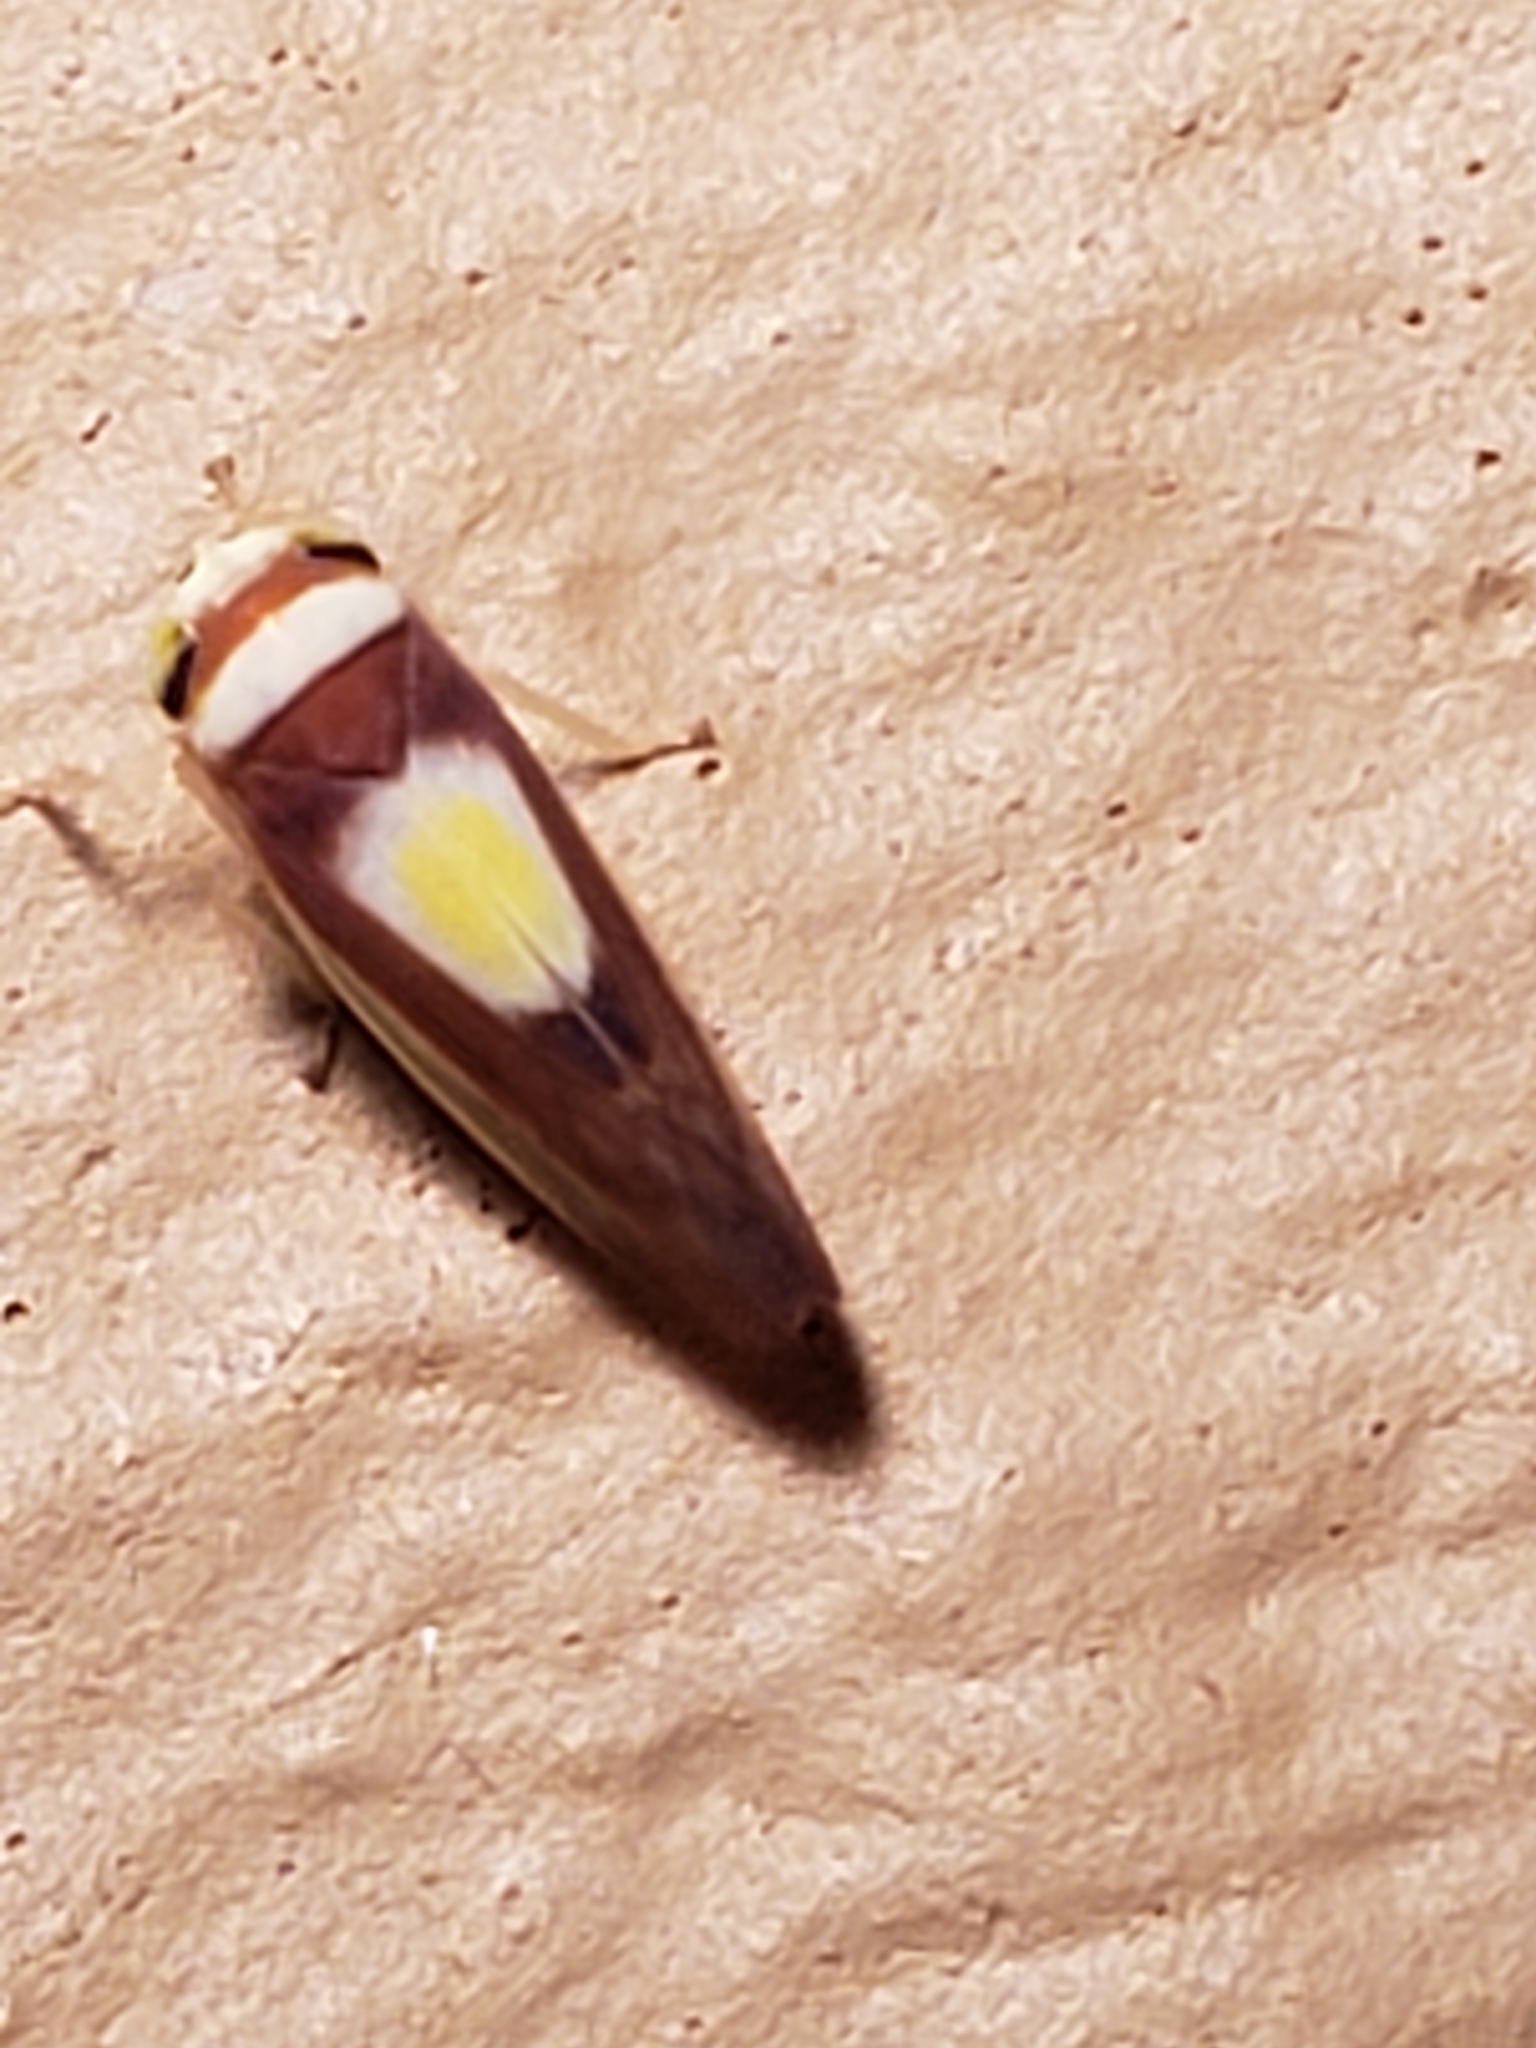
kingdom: Animalia
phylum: Arthropoda
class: Insecta
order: Hemiptera
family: Cicadellidae
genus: Colladonus
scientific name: Colladonus clitellarius
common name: The saddleback leafhopper
